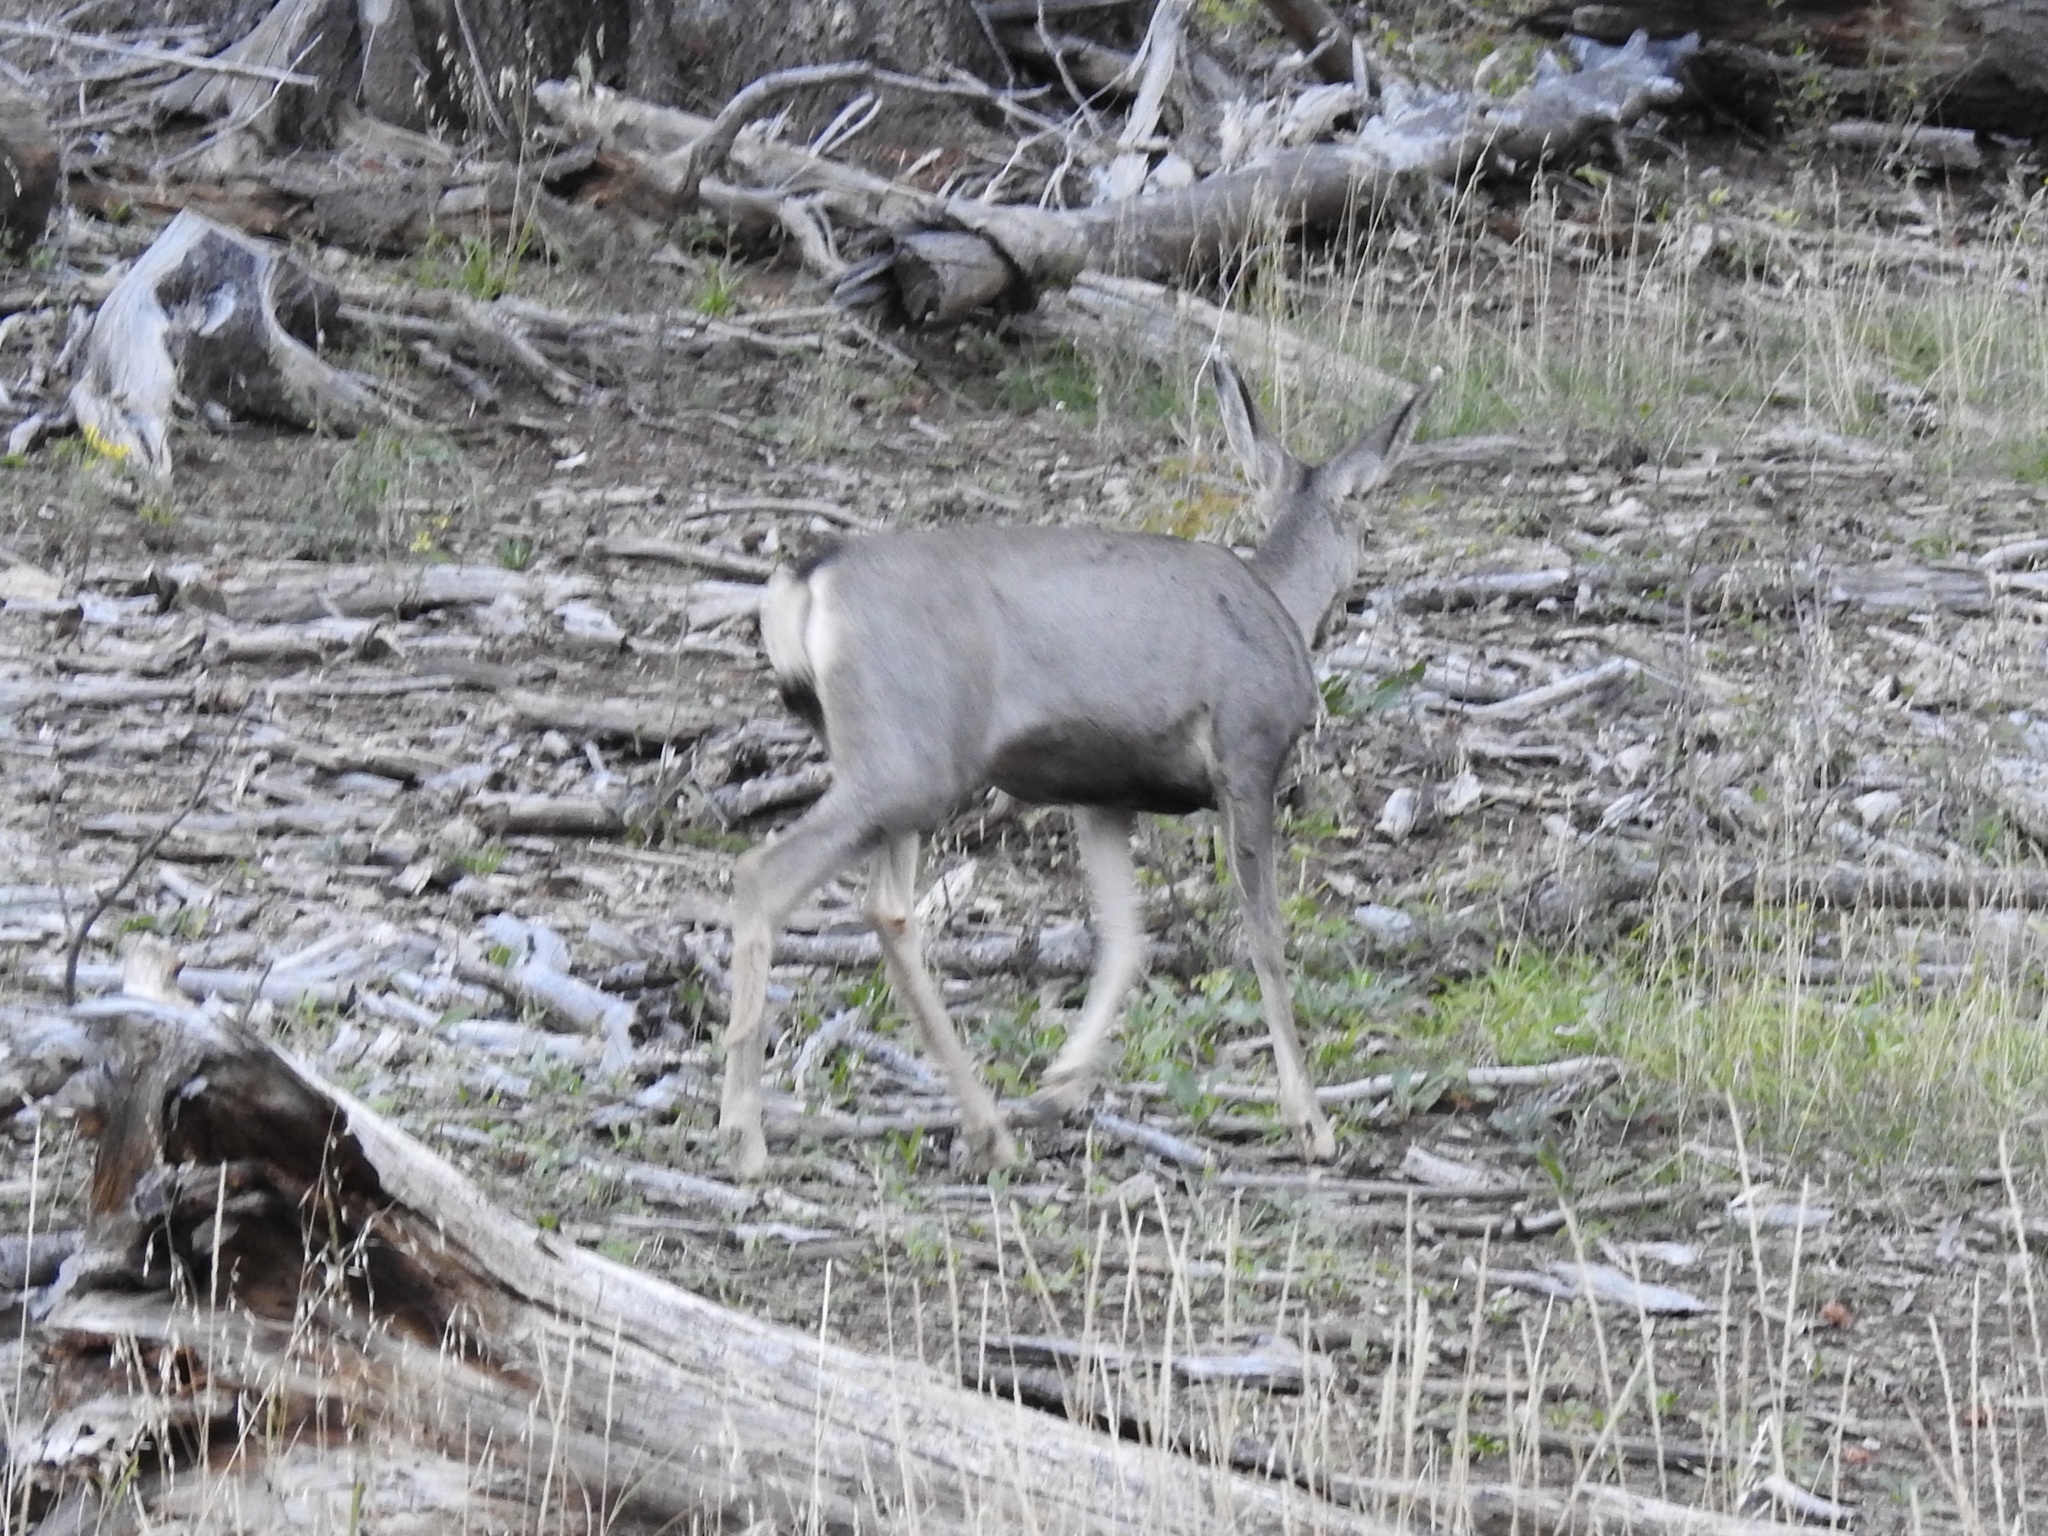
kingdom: Animalia
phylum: Chordata
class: Mammalia
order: Artiodactyla
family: Cervidae
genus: Odocoileus
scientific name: Odocoileus hemionus
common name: Mule deer
